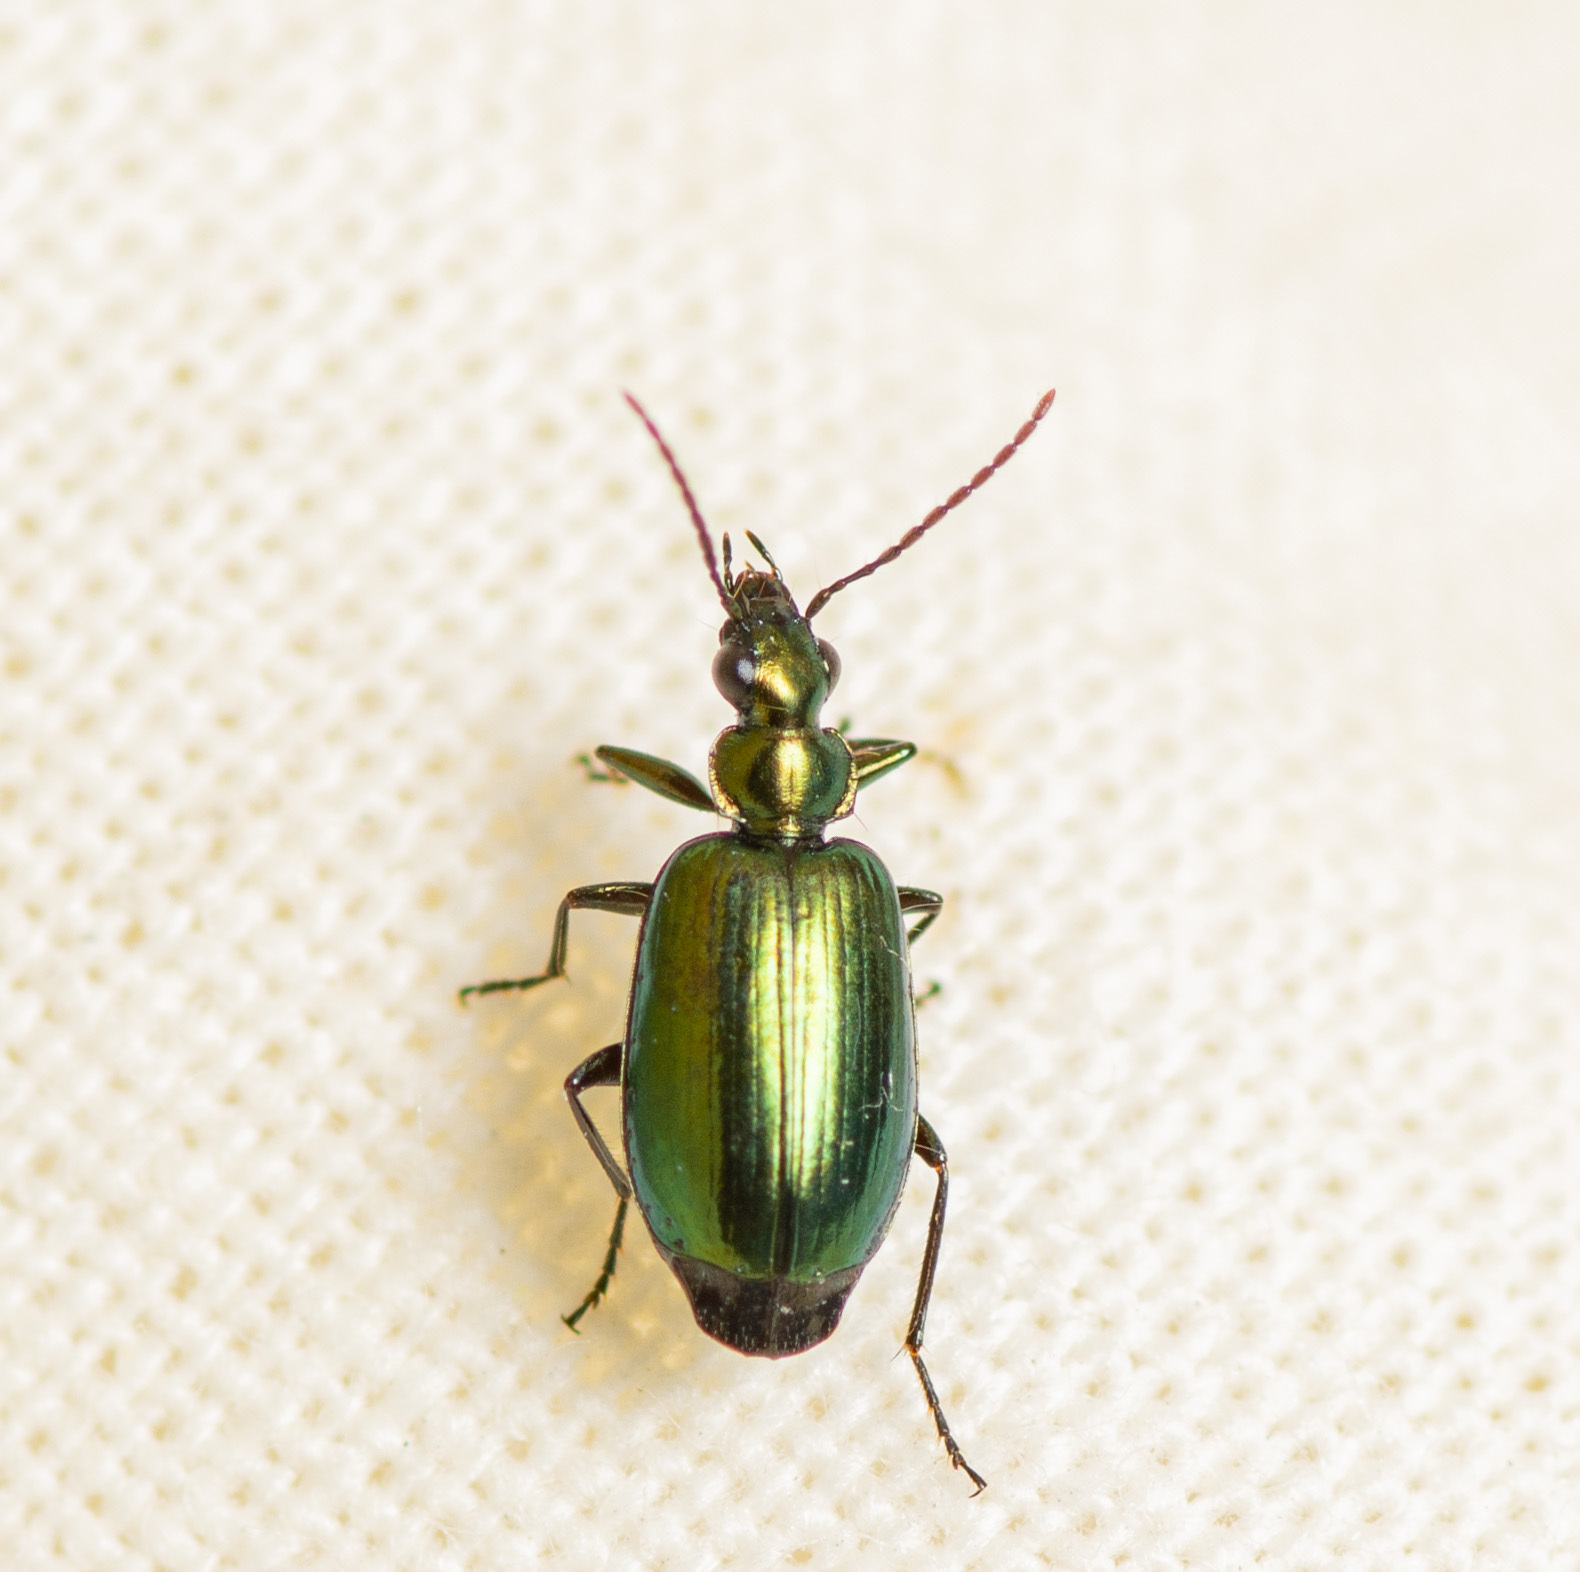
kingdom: Animalia
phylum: Arthropoda
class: Insecta
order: Coleoptera
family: Carabidae
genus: Lebia
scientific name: Lebia viridis
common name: Flower lebia beetle
